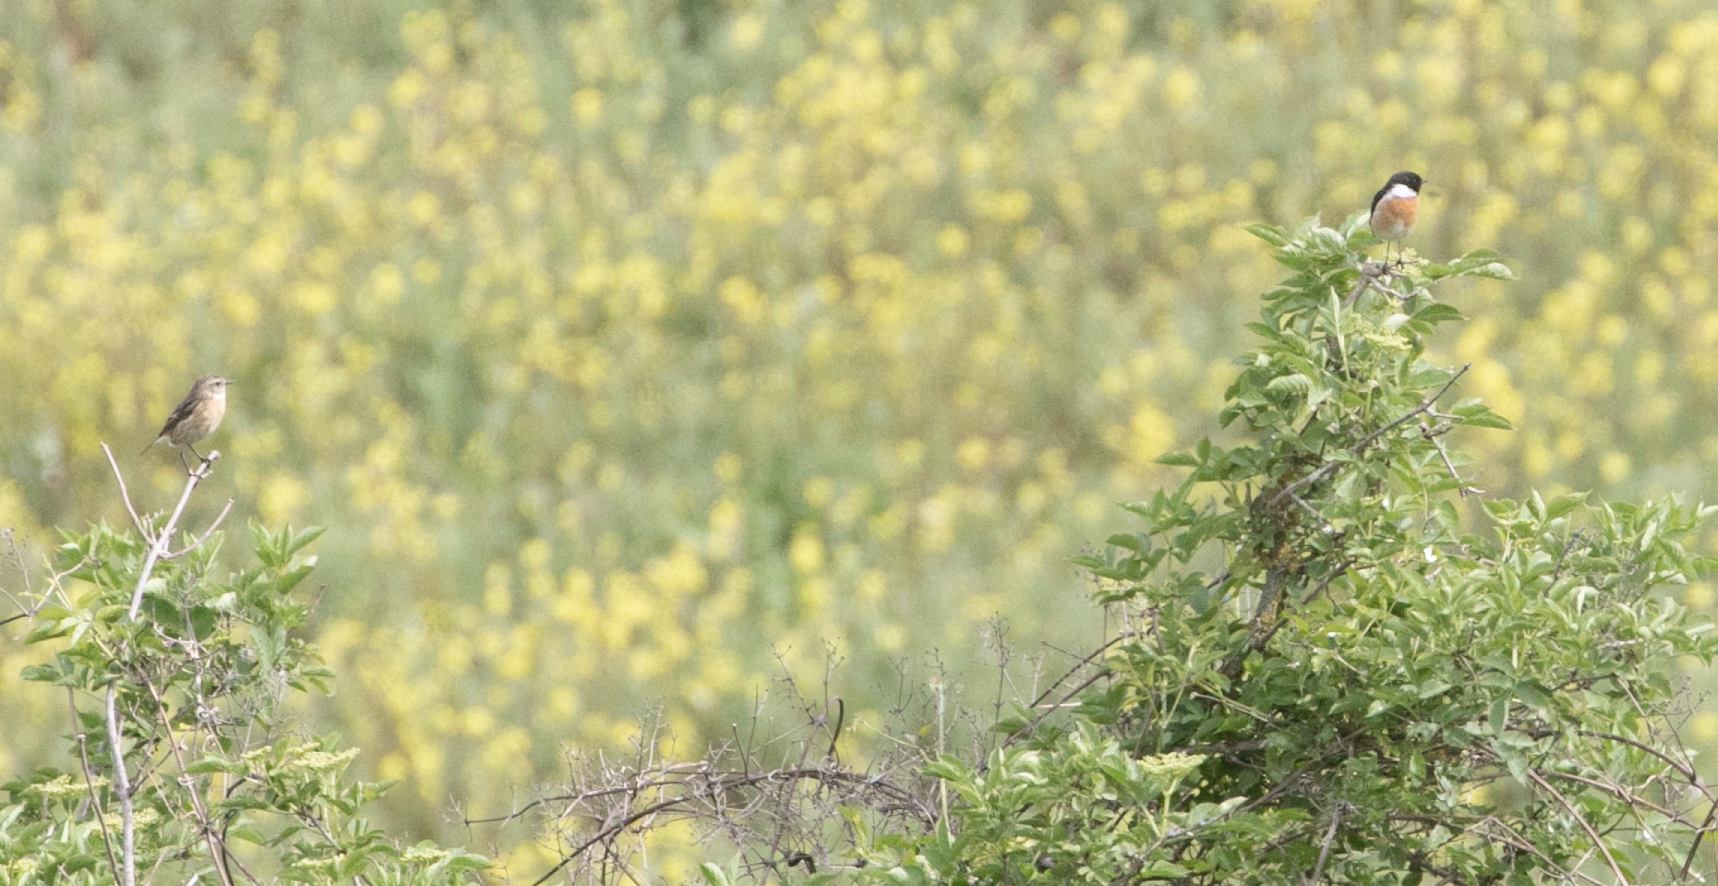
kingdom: Animalia
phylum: Chordata
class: Aves
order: Passeriformes
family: Muscicapidae
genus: Saxicola
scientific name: Saxicola rubicola
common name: European stonechat
